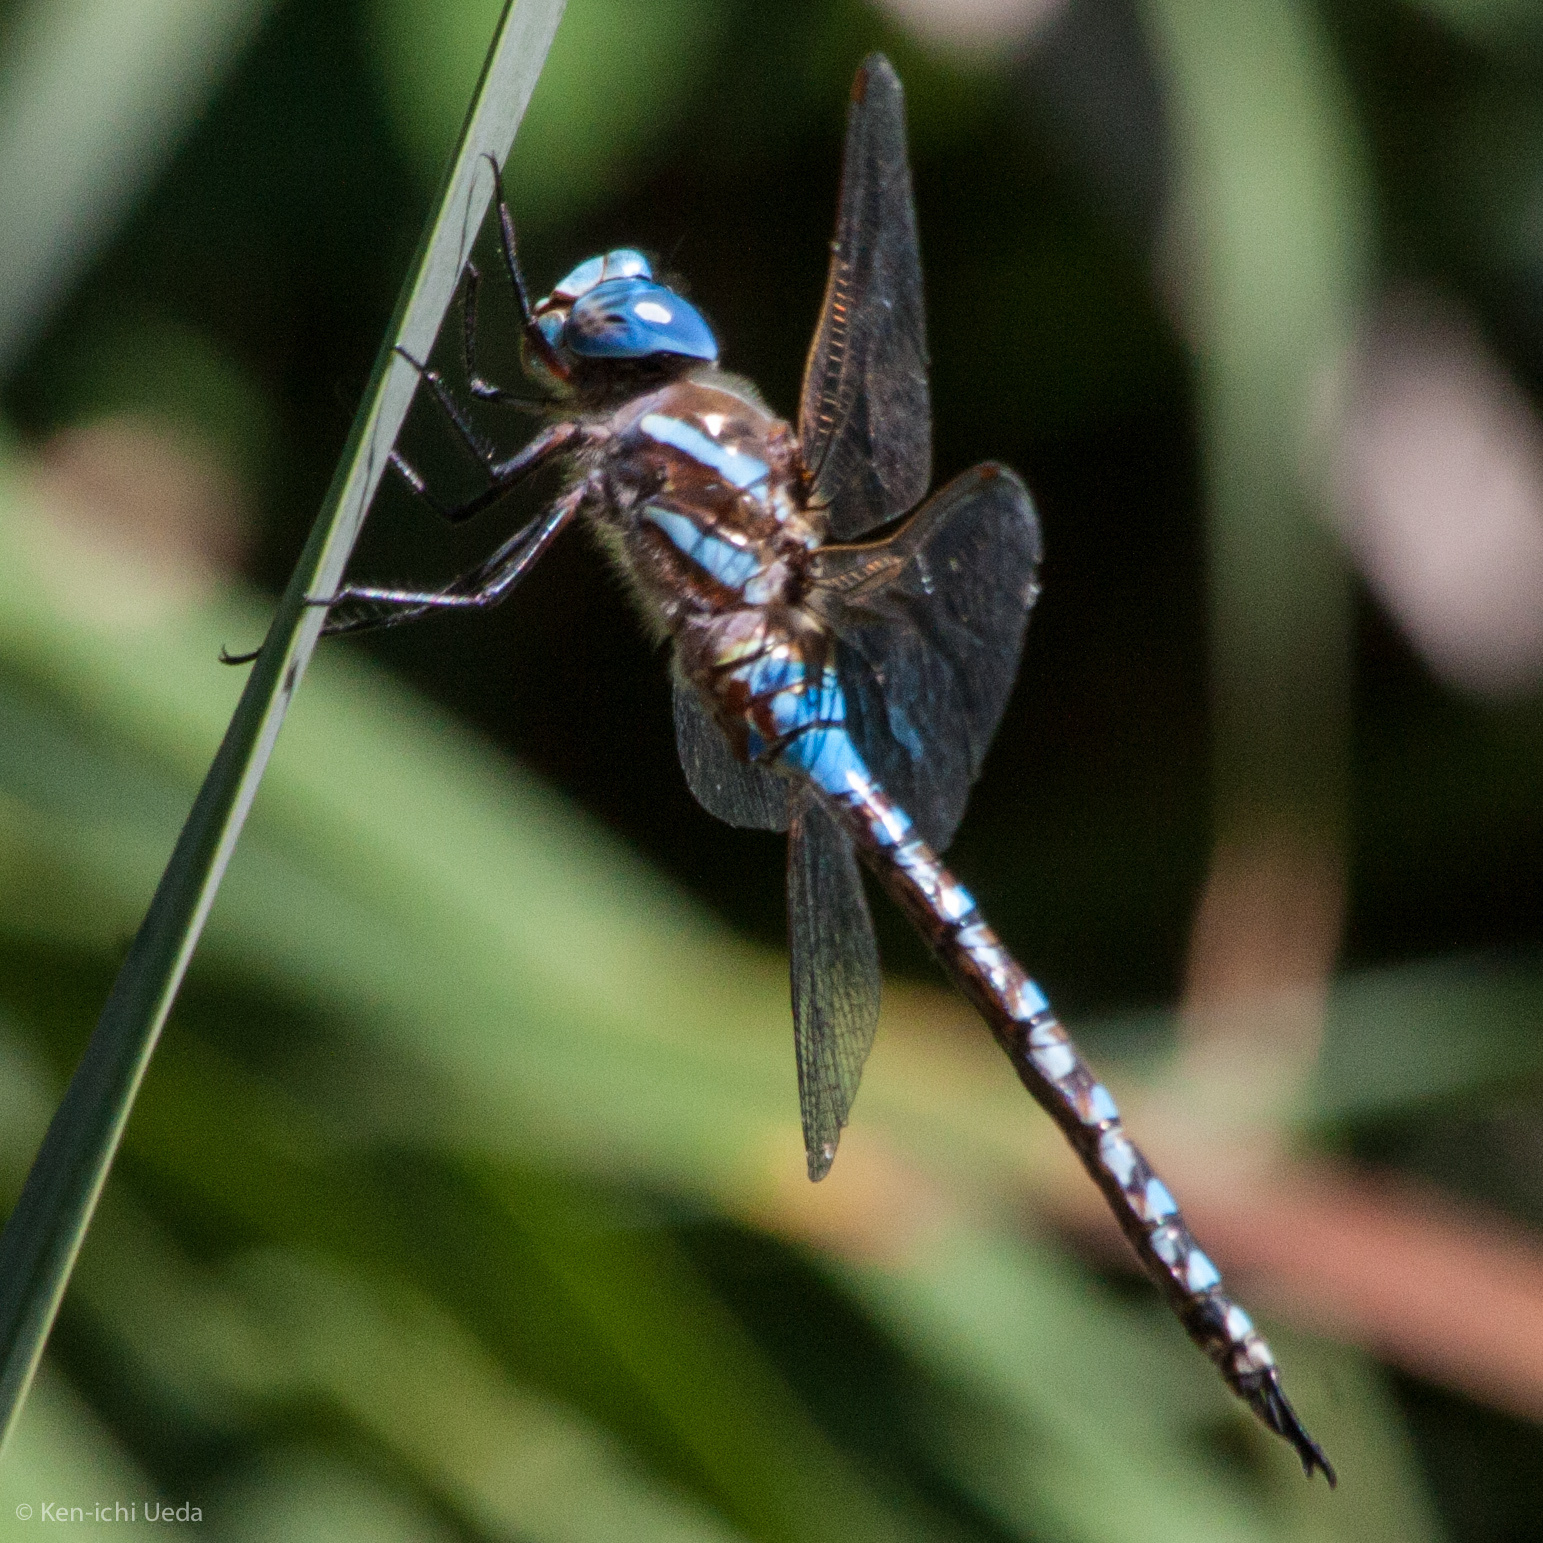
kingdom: Animalia
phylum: Arthropoda
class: Insecta
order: Odonata
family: Aeshnidae
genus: Rhionaeschna
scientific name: Rhionaeschna multicolor
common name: Blue-eyed darner
